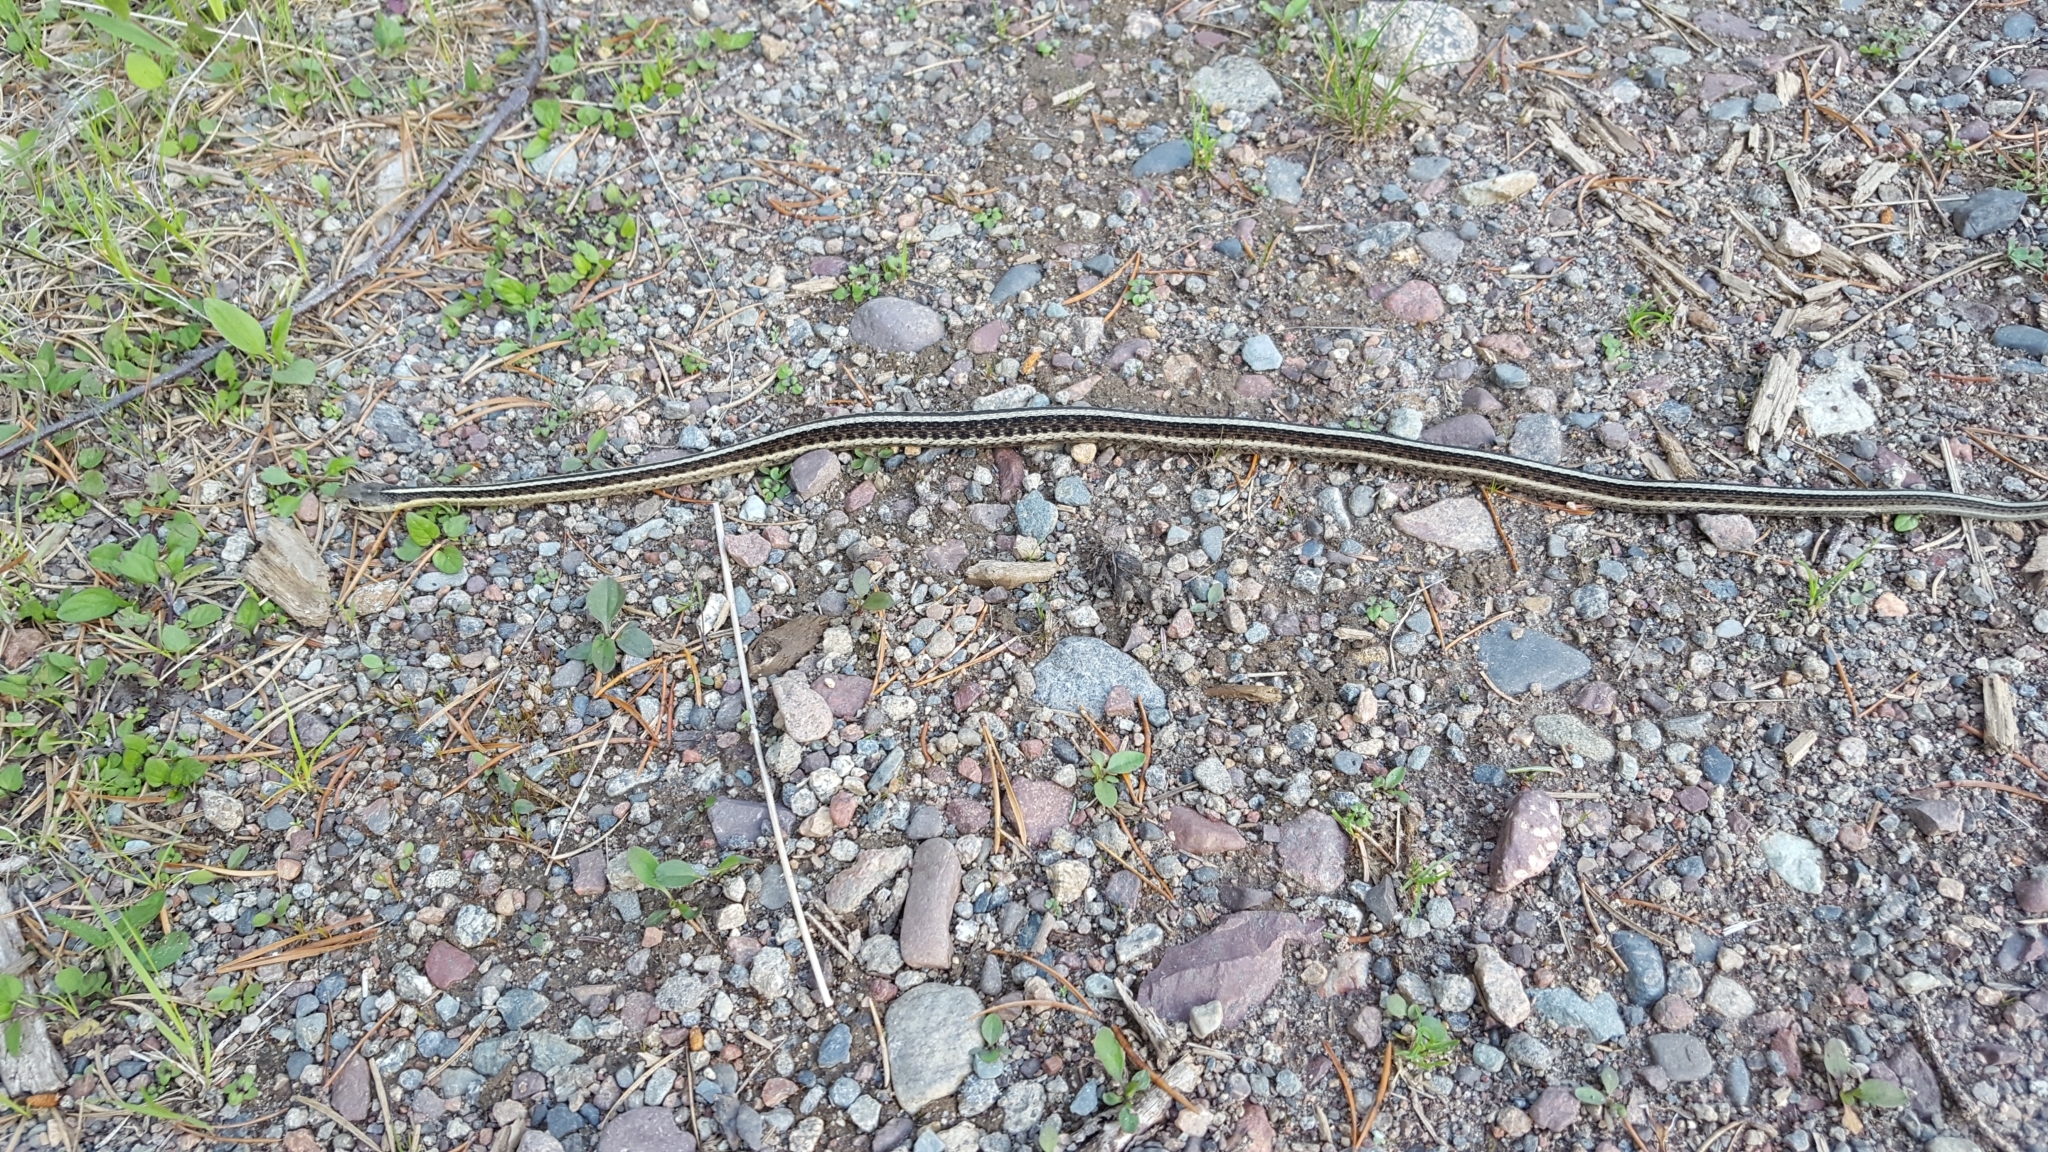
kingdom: Animalia
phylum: Chordata
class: Squamata
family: Colubridae
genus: Thamnophis
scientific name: Thamnophis sirtalis
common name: Common garter snake
